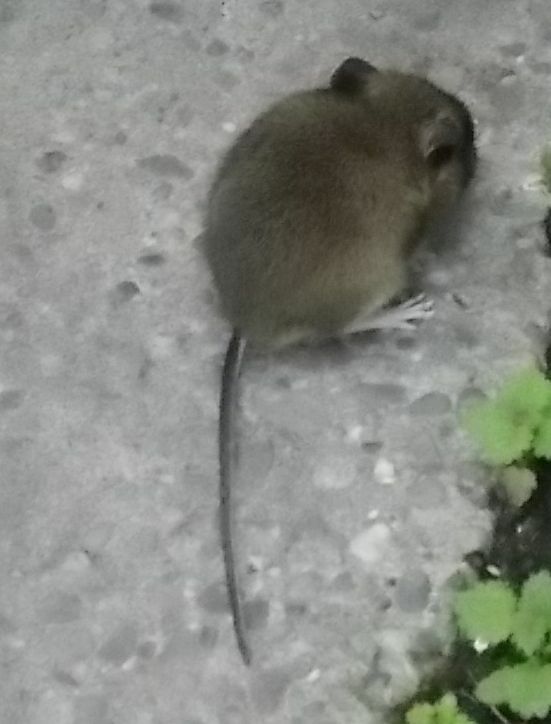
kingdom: Animalia
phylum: Chordata
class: Mammalia
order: Rodentia
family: Muridae
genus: Apodemus
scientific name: Apodemus sylvaticus
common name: Wood mouse
